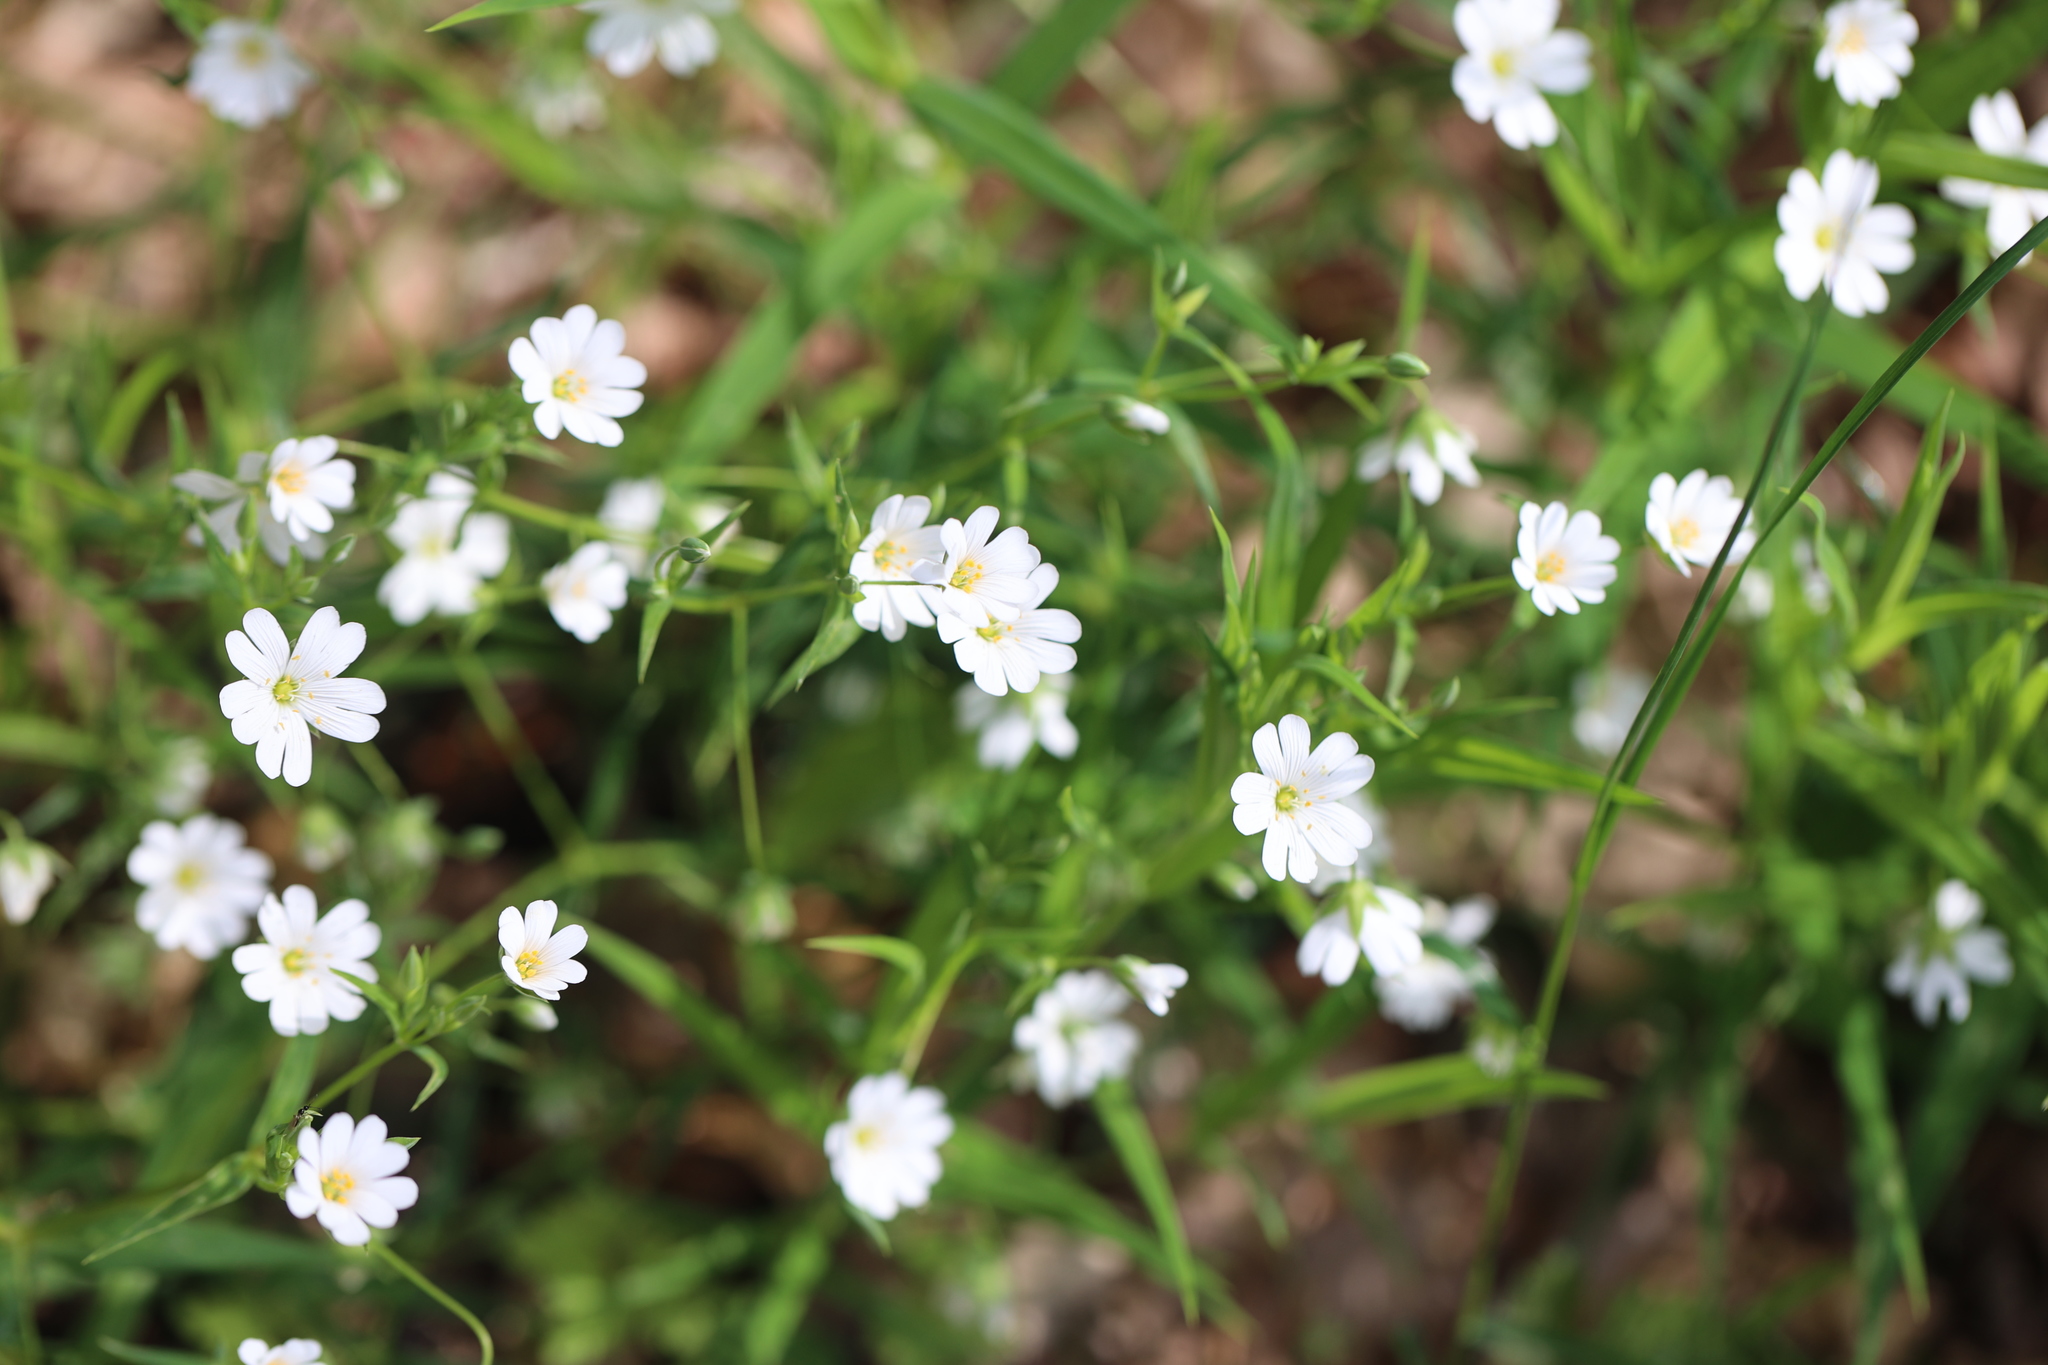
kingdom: Plantae
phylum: Tracheophyta
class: Magnoliopsida
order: Caryophyllales
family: Caryophyllaceae
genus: Rabelera
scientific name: Rabelera holostea
